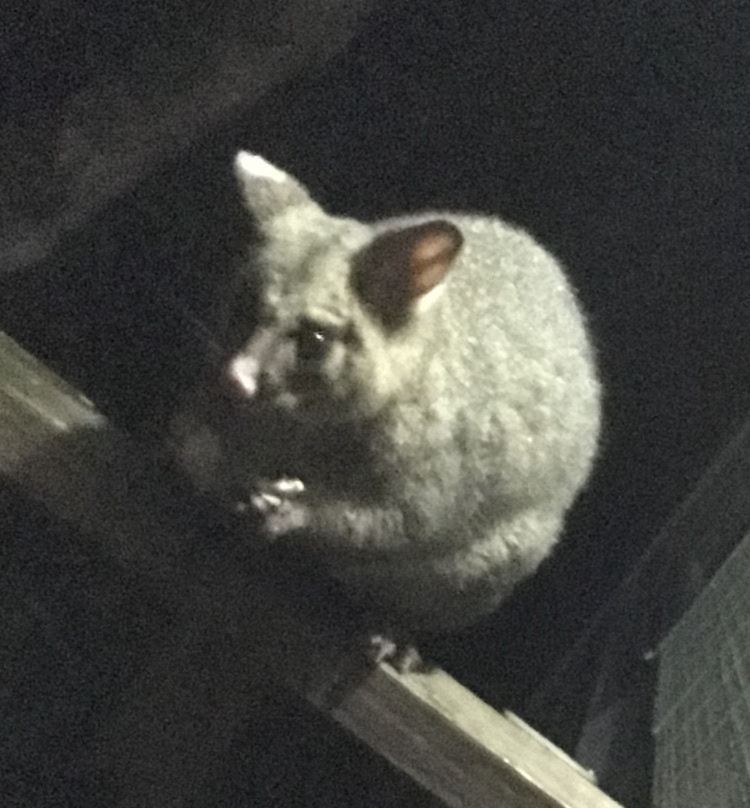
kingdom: Animalia
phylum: Chordata
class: Mammalia
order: Diprotodontia
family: Phalangeridae
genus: Trichosurus
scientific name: Trichosurus vulpecula
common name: Common brushtail
